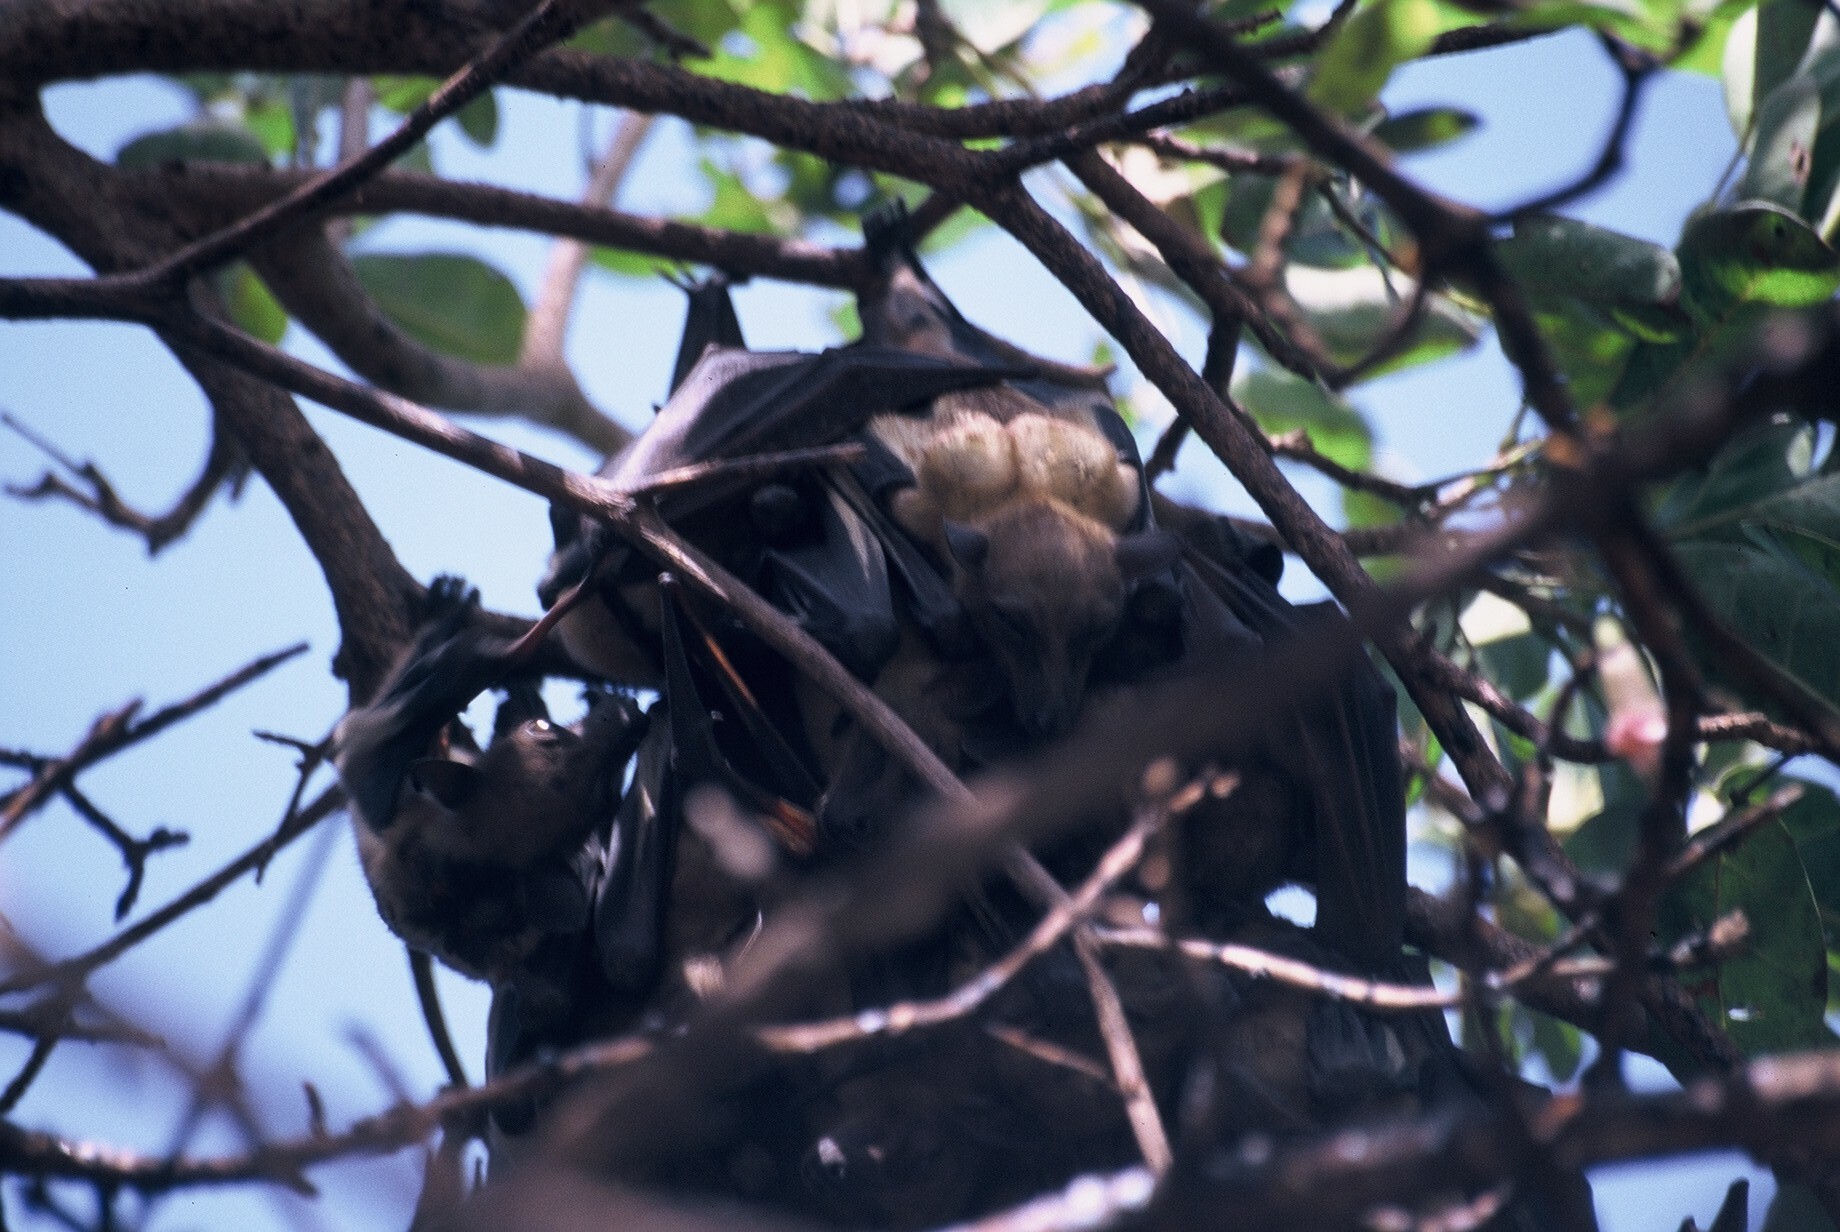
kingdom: Animalia
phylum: Chordata
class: Mammalia
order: Chiroptera
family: Pteropodidae
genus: Eidolon
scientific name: Eidolon helvum
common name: Straw-colored fruit bat
